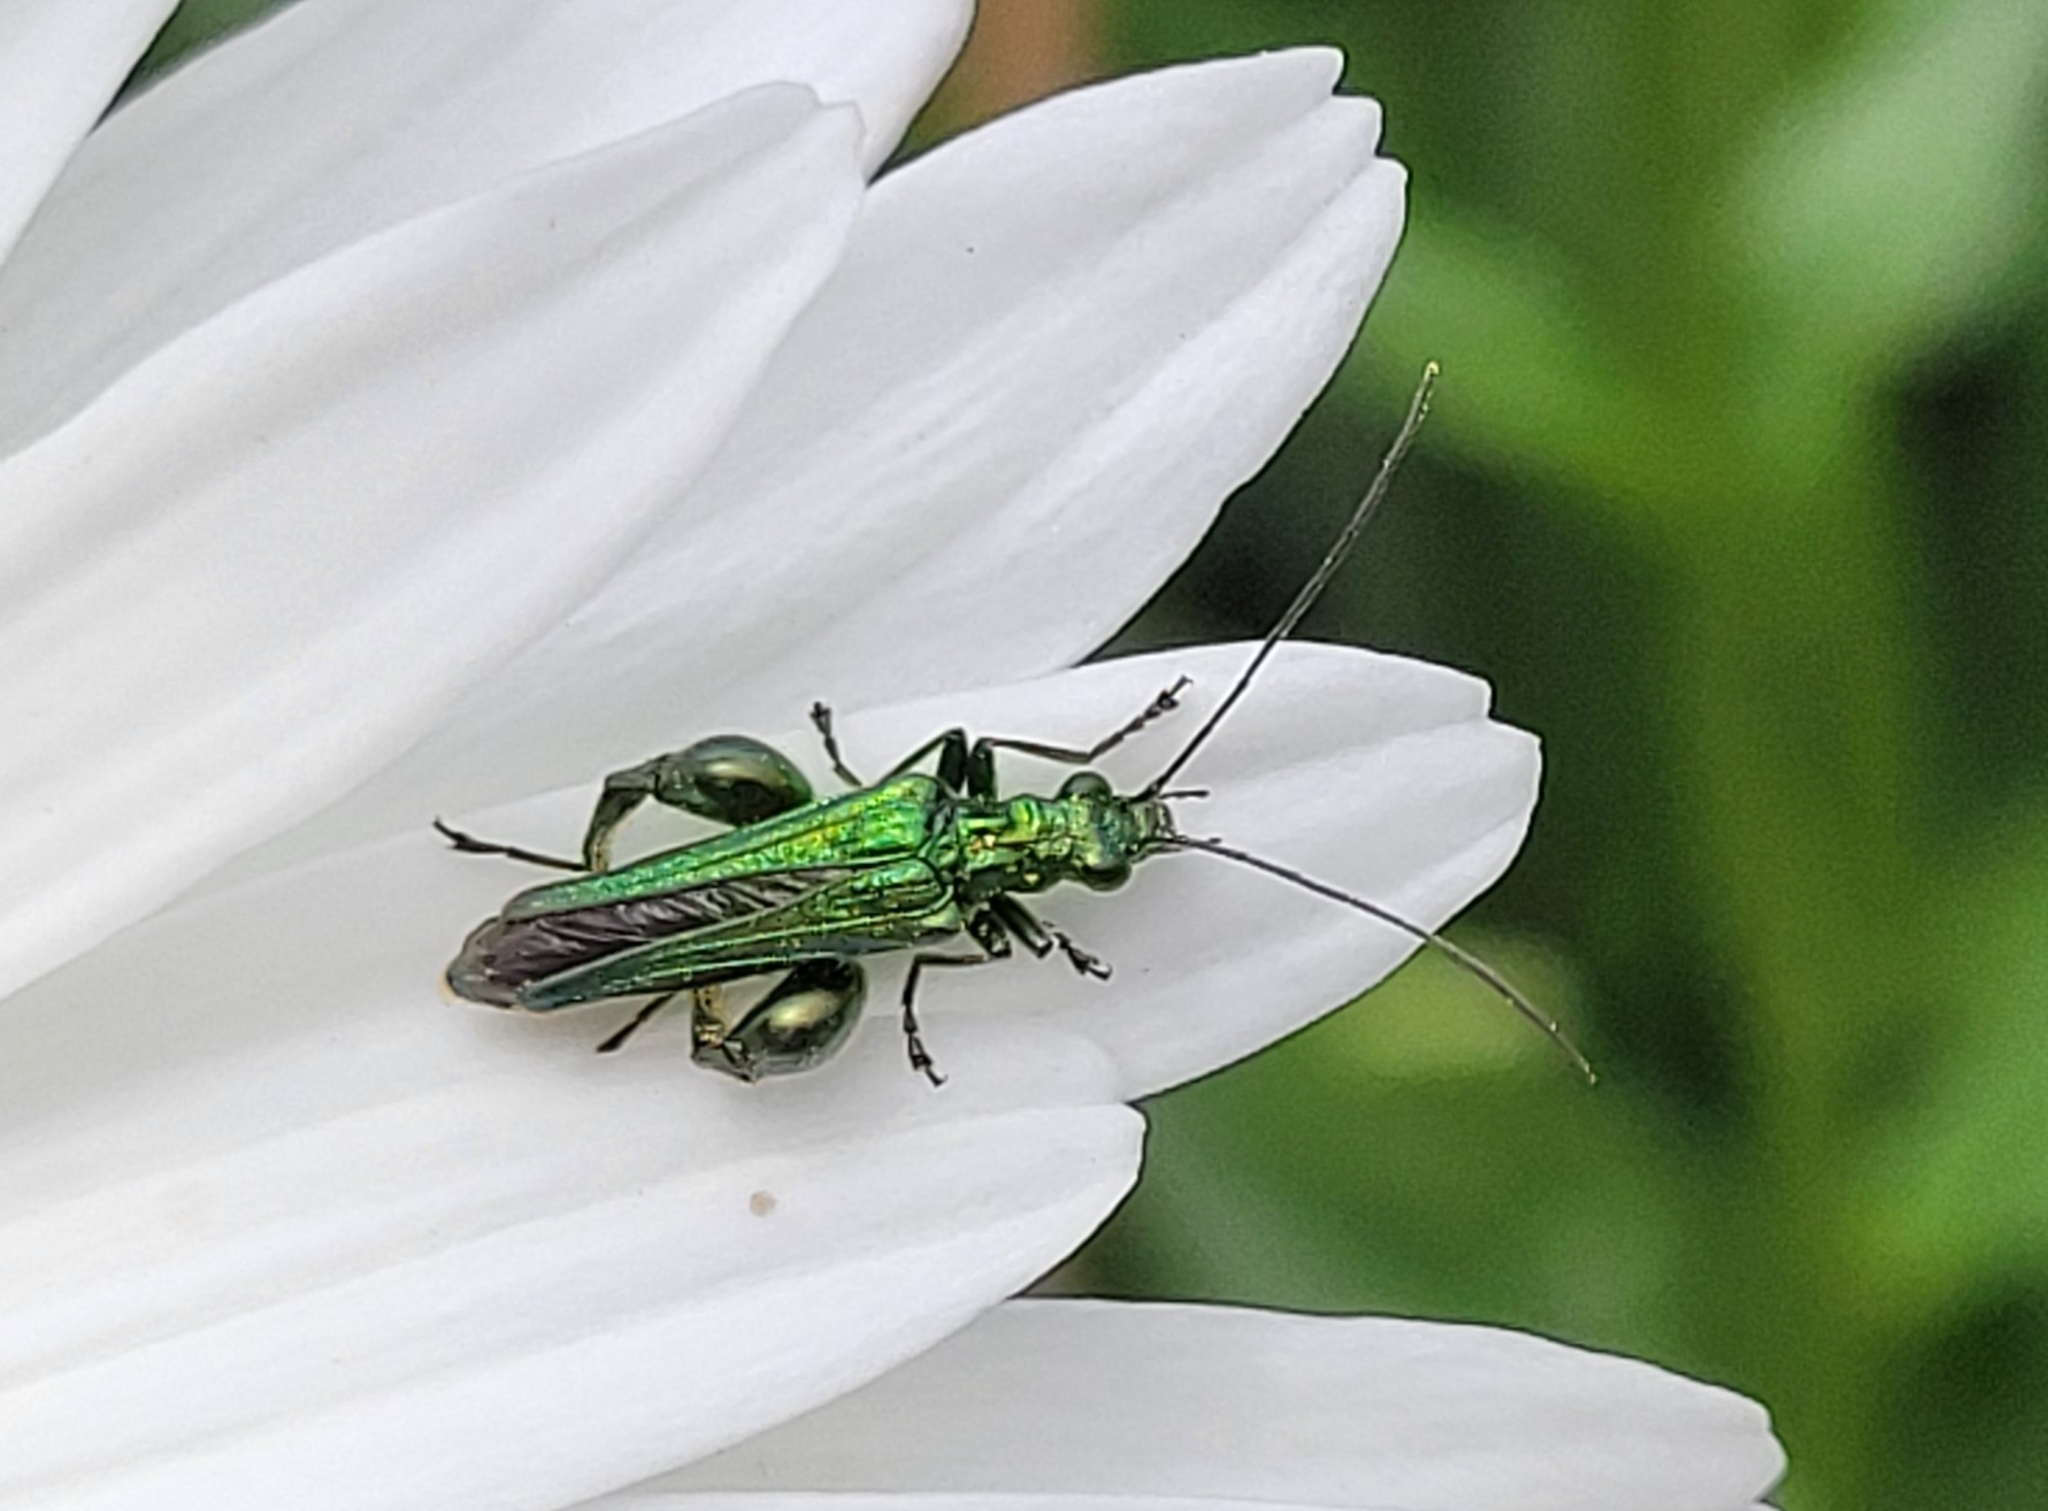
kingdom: Animalia
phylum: Arthropoda
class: Insecta
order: Coleoptera
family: Oedemeridae
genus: Oedemera
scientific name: Oedemera nobilis
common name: Swollen-thighed beetle
